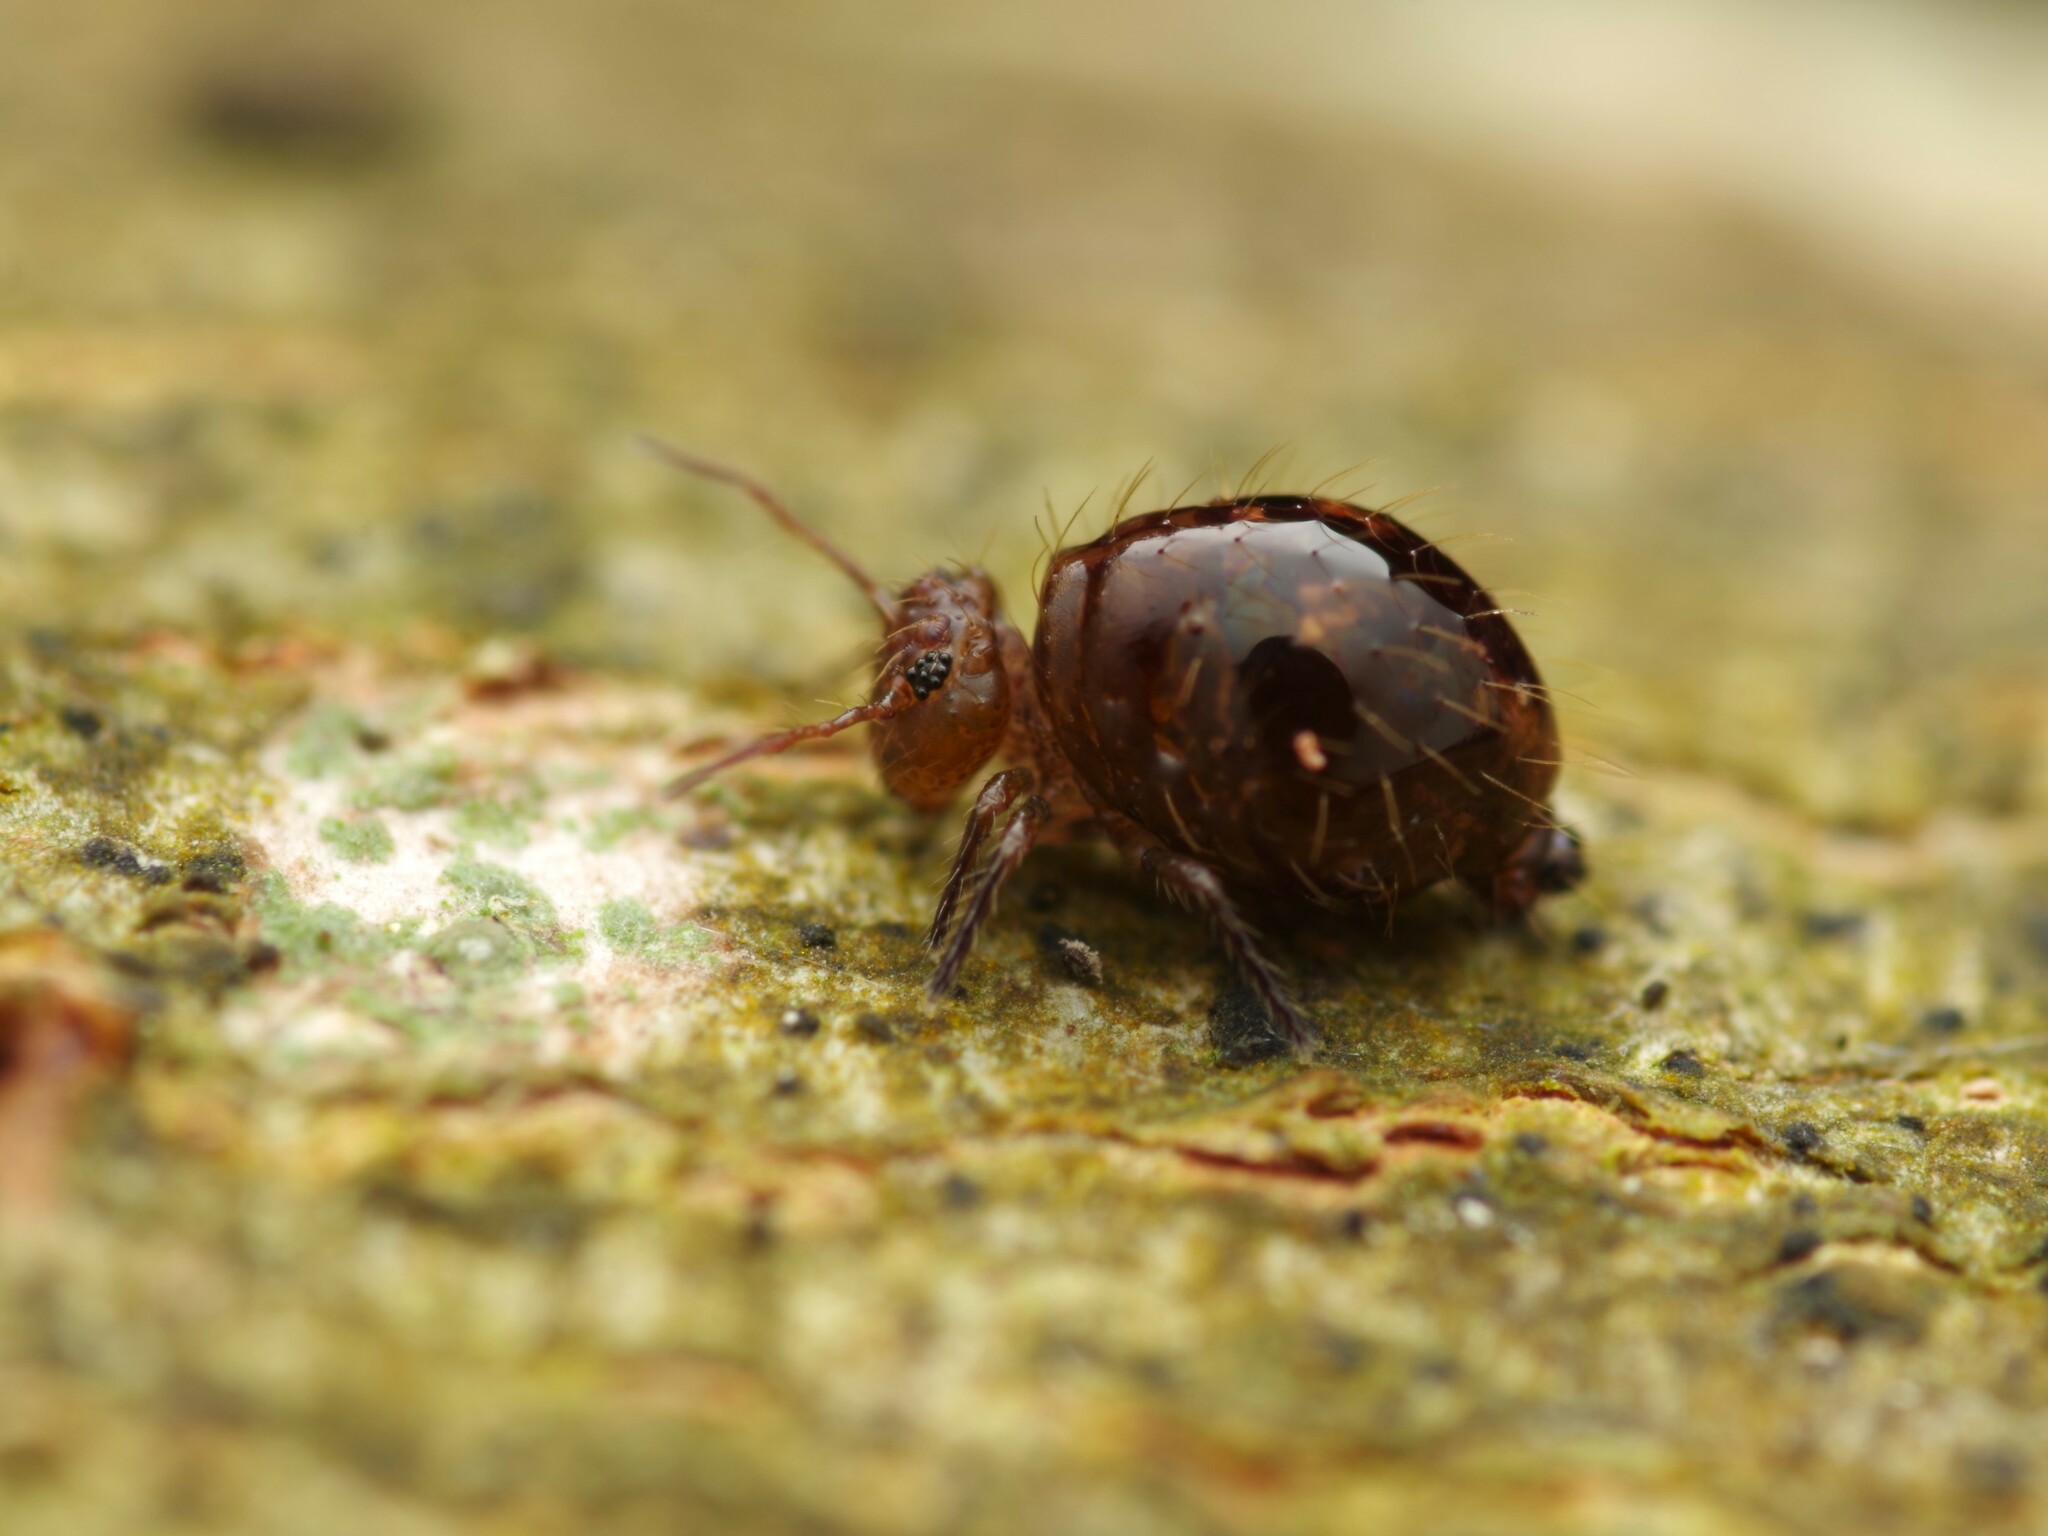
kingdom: Animalia
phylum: Arthropoda
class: Collembola
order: Symphypleona
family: Sminthuridae
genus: Allacma
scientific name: Allacma fusca
